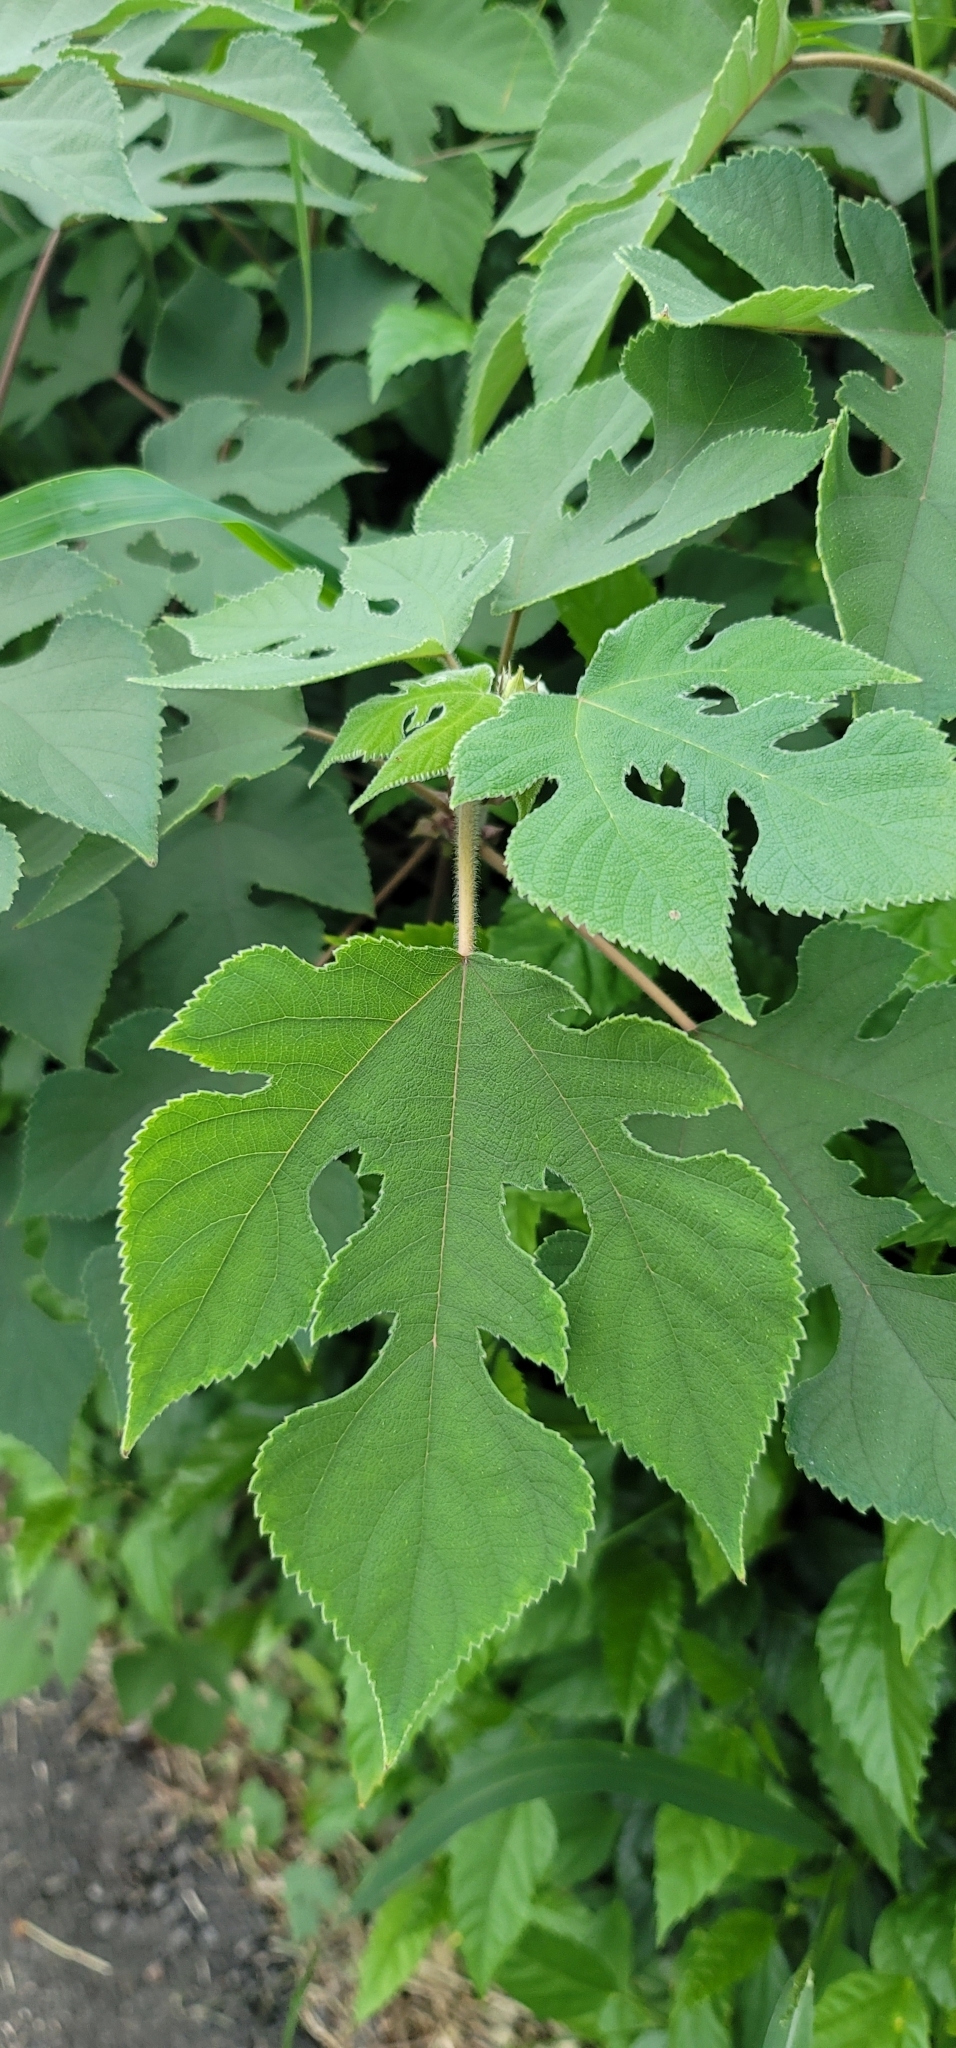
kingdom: Plantae
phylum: Tracheophyta
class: Magnoliopsida
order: Rosales
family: Moraceae
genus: Broussonetia
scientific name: Broussonetia papyrifera
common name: Paper mulberry
